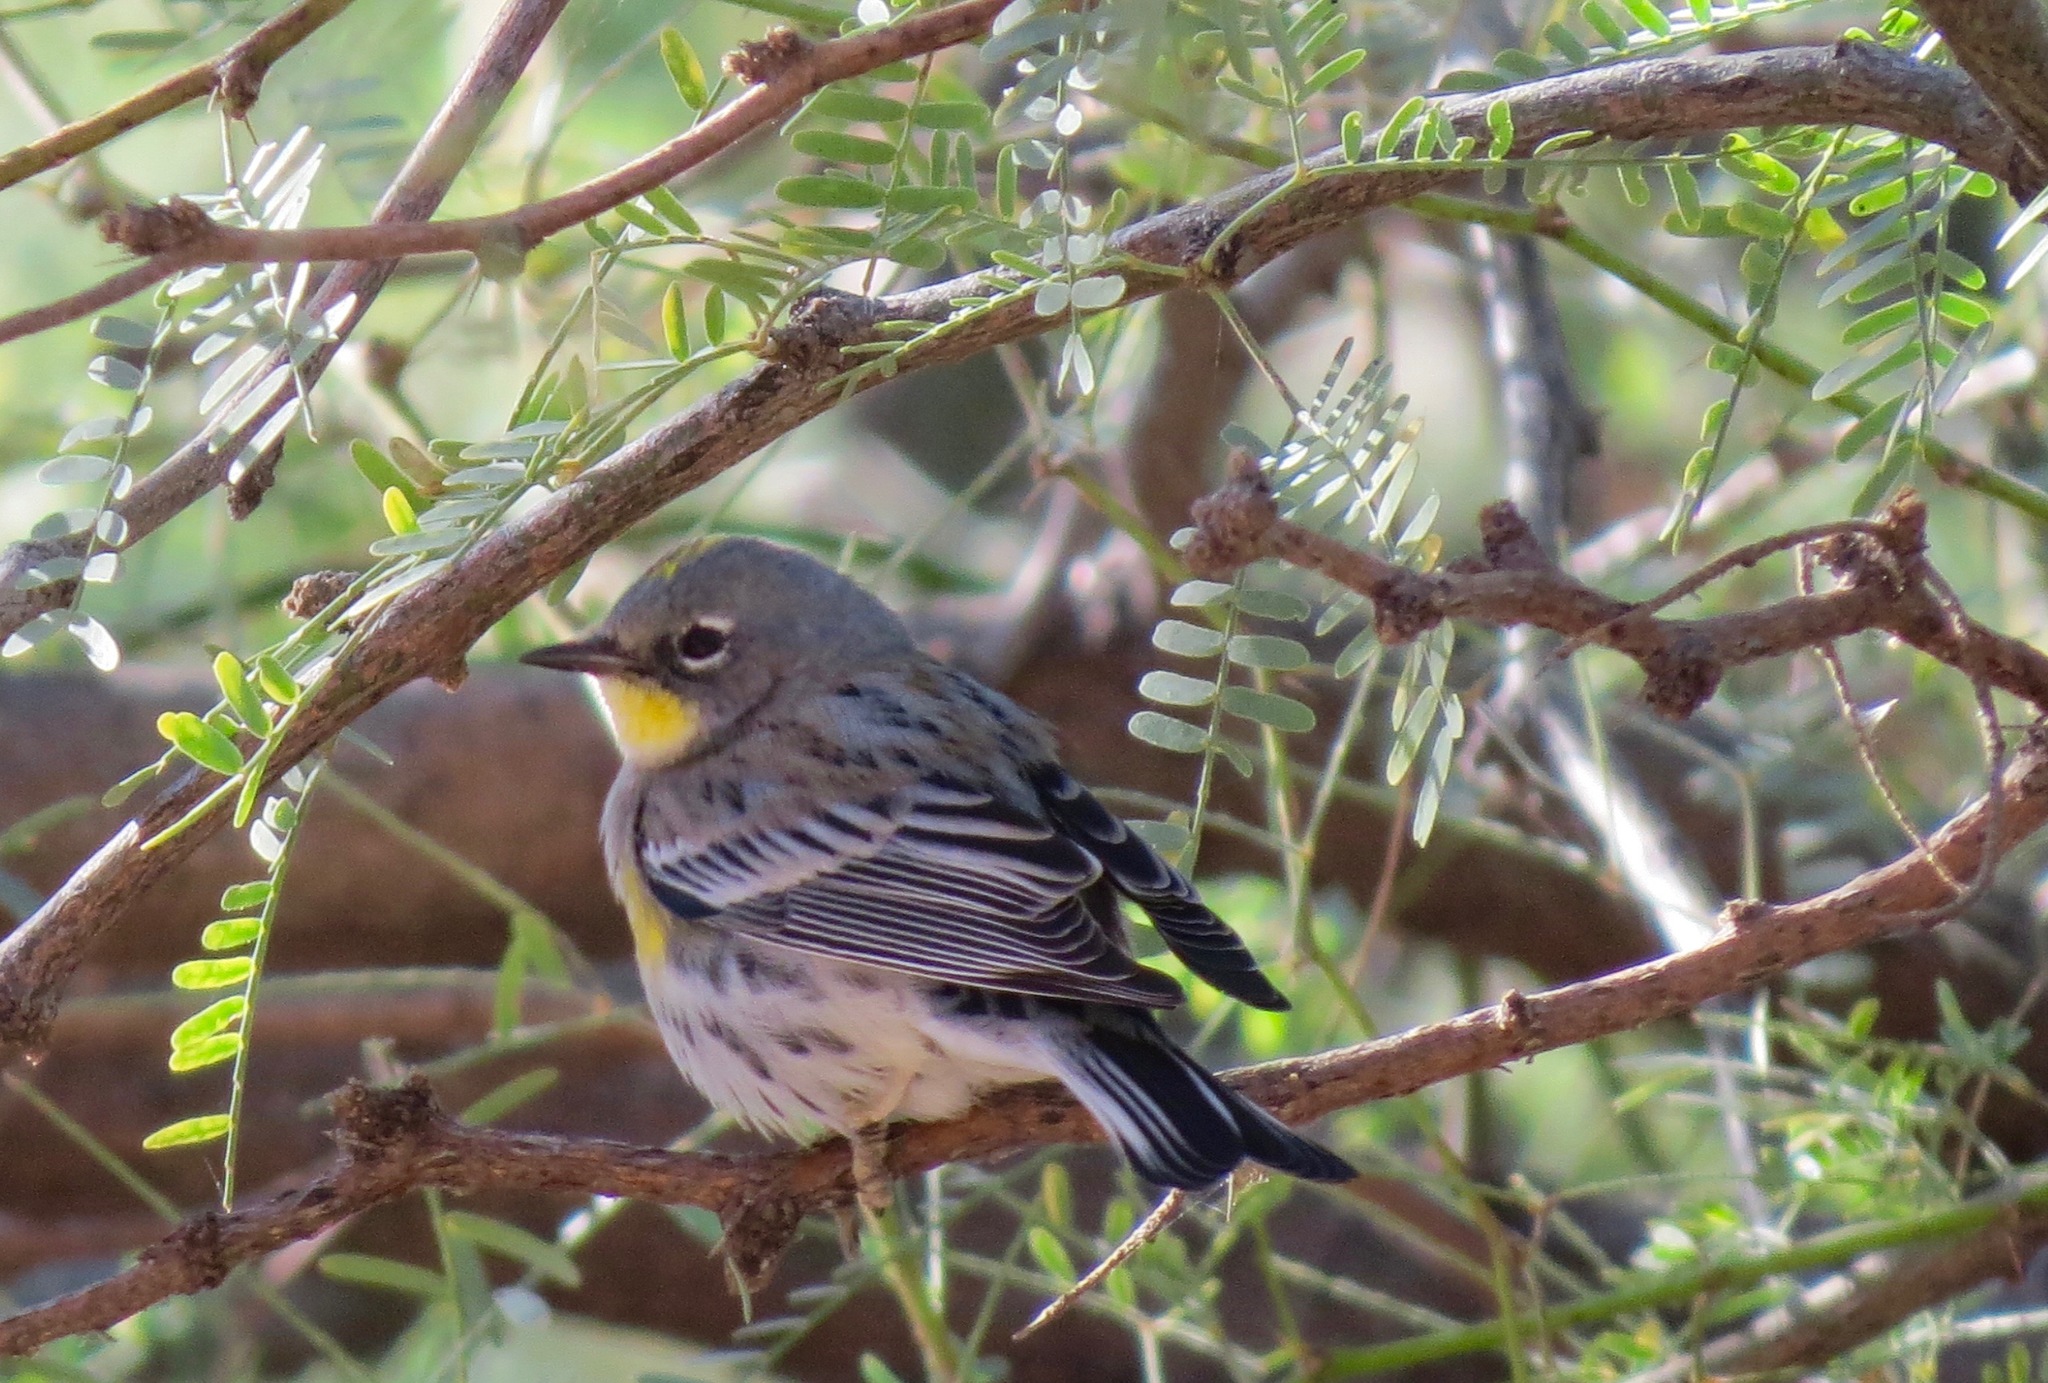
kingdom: Animalia
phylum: Chordata
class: Aves
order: Passeriformes
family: Parulidae
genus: Setophaga
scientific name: Setophaga coronata
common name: Myrtle warbler
